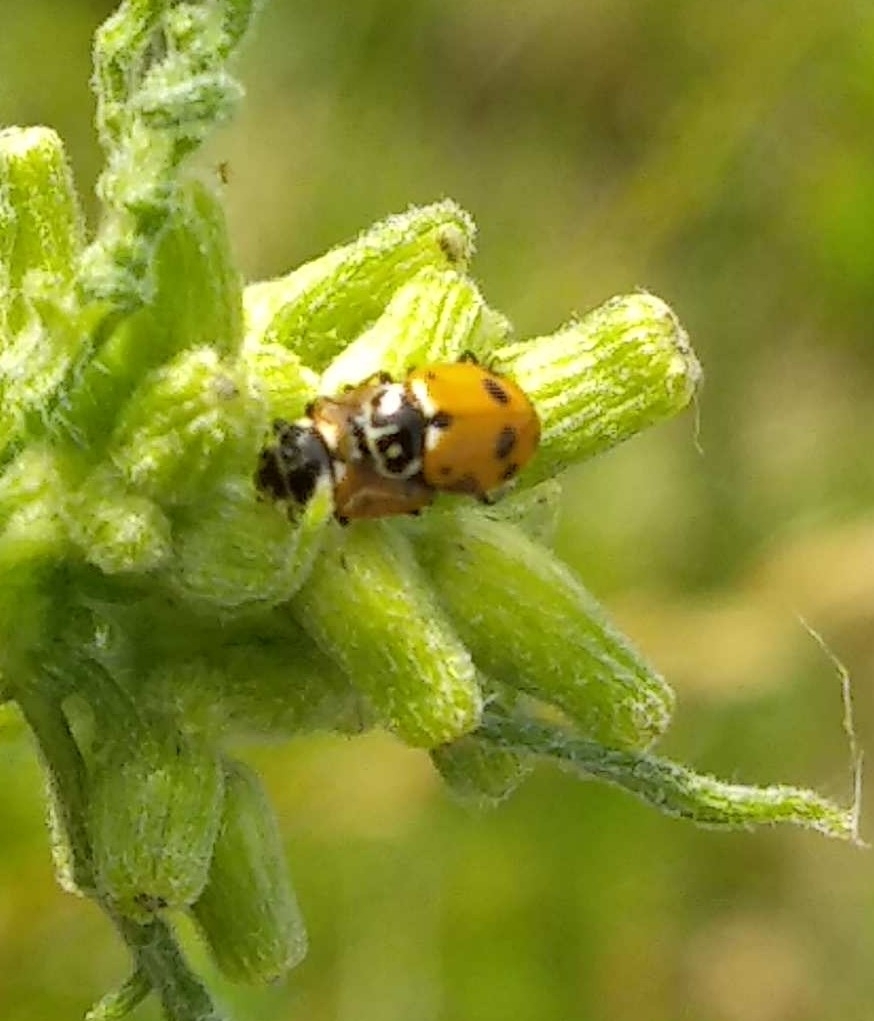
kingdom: Animalia
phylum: Arthropoda
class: Insecta
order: Coleoptera
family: Coccinellidae
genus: Hippodamia
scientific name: Hippodamia variegata
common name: Ladybird beetle
